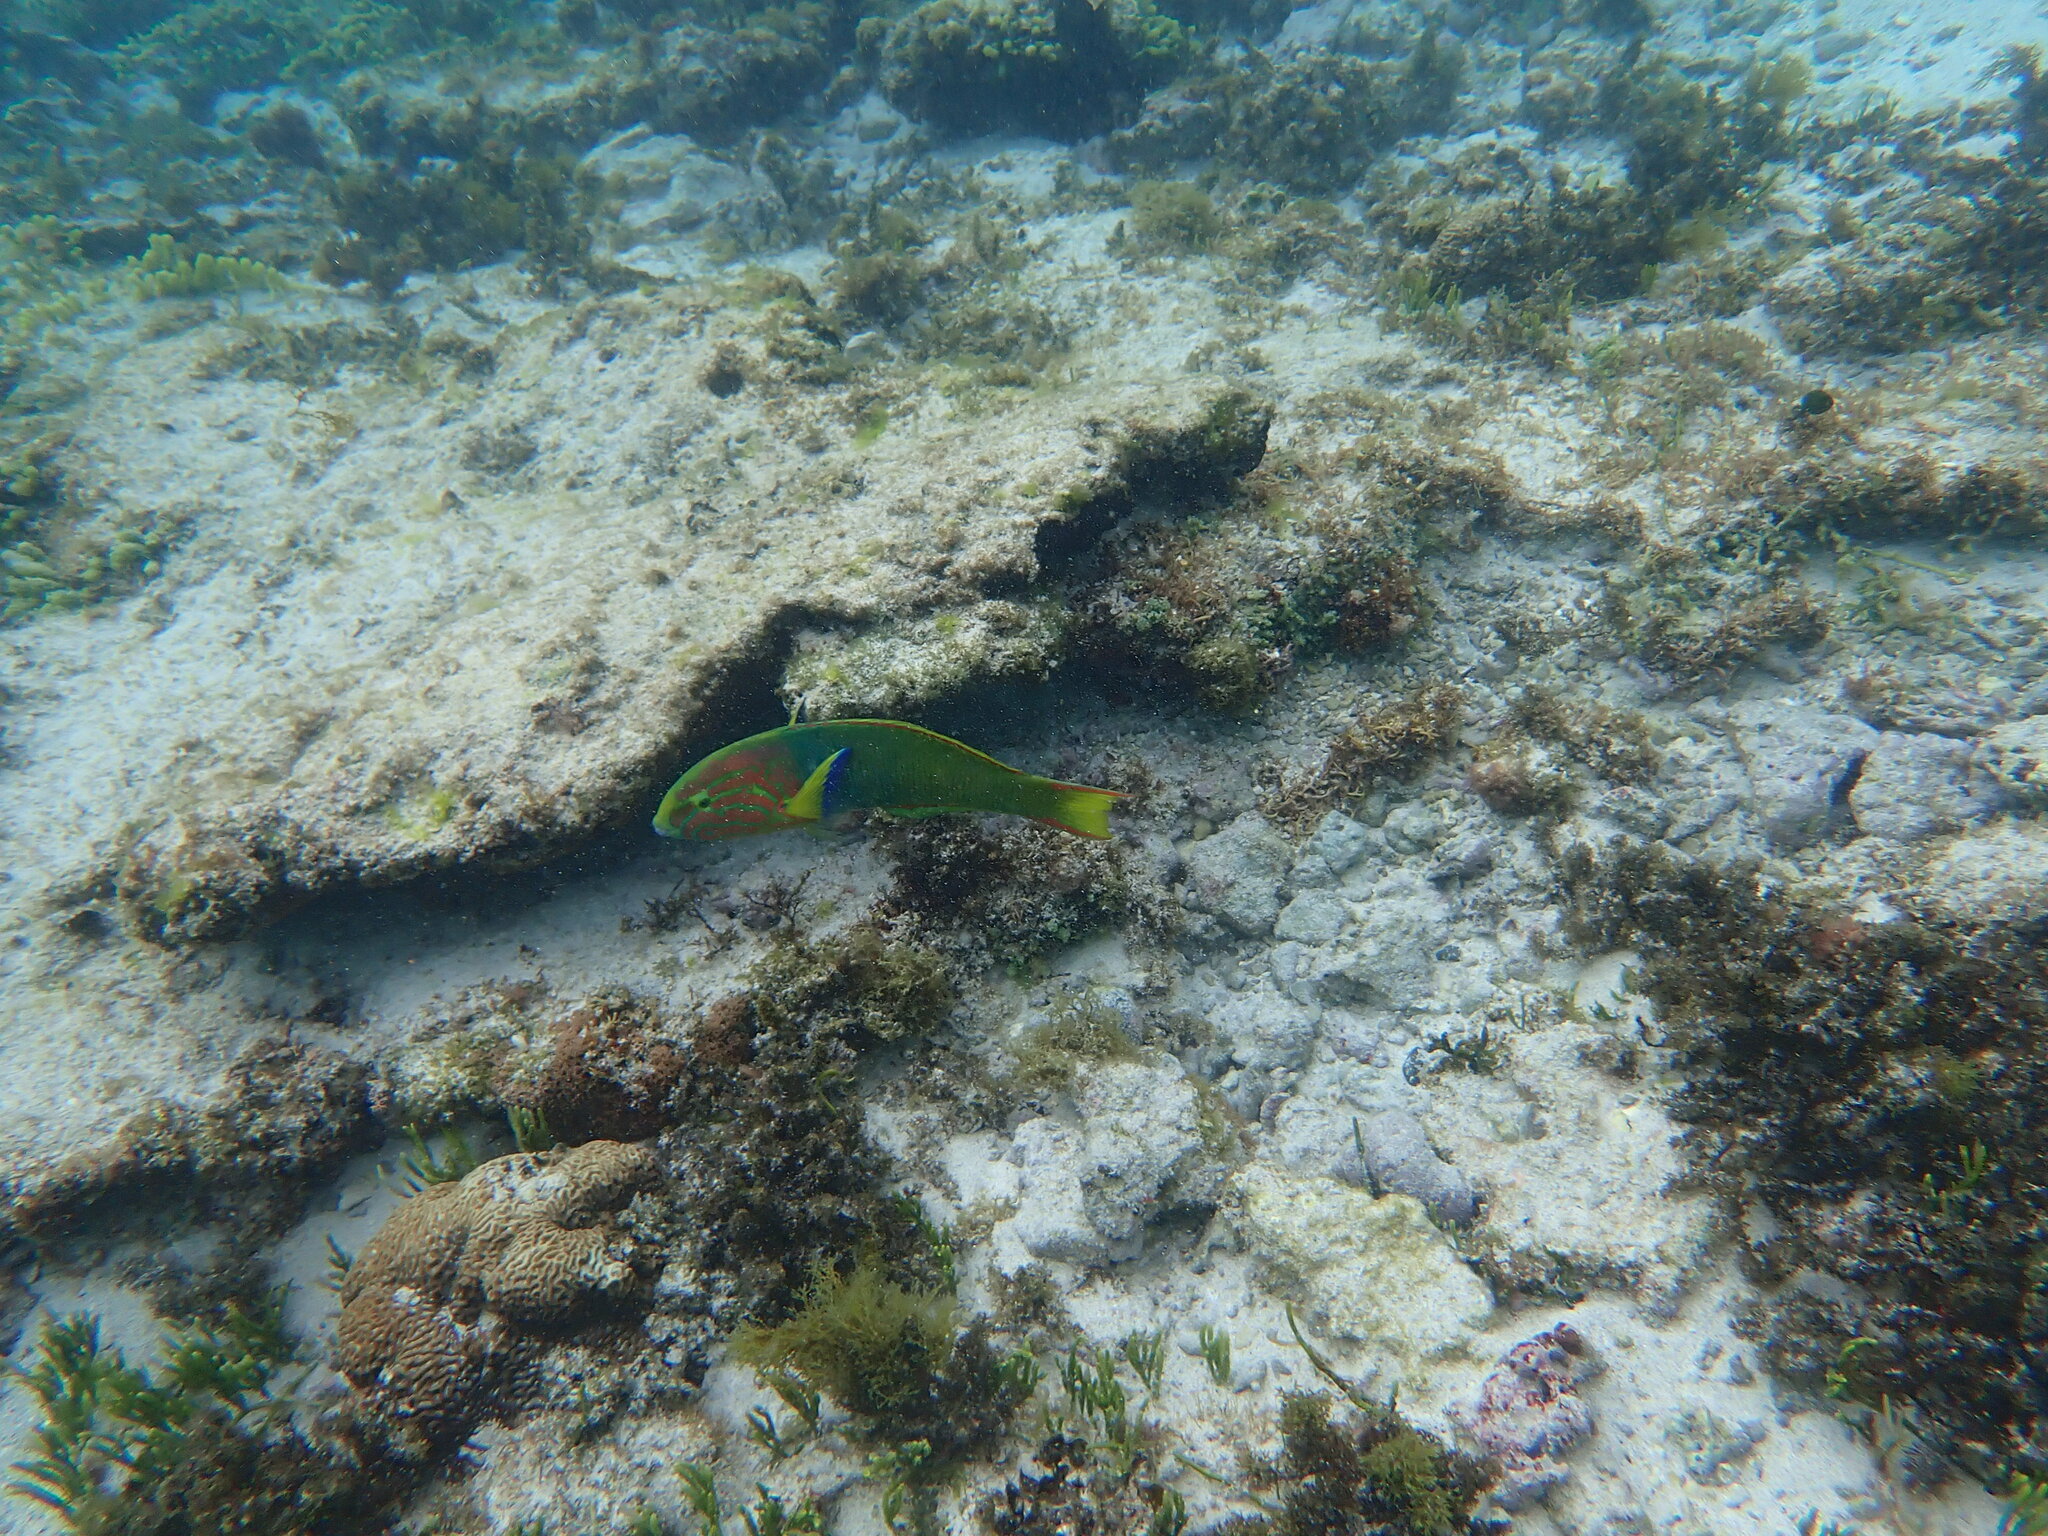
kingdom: Animalia
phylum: Chordata
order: Perciformes
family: Labridae
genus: Thalassoma
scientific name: Thalassoma lutescens
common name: Green moon wrasse
